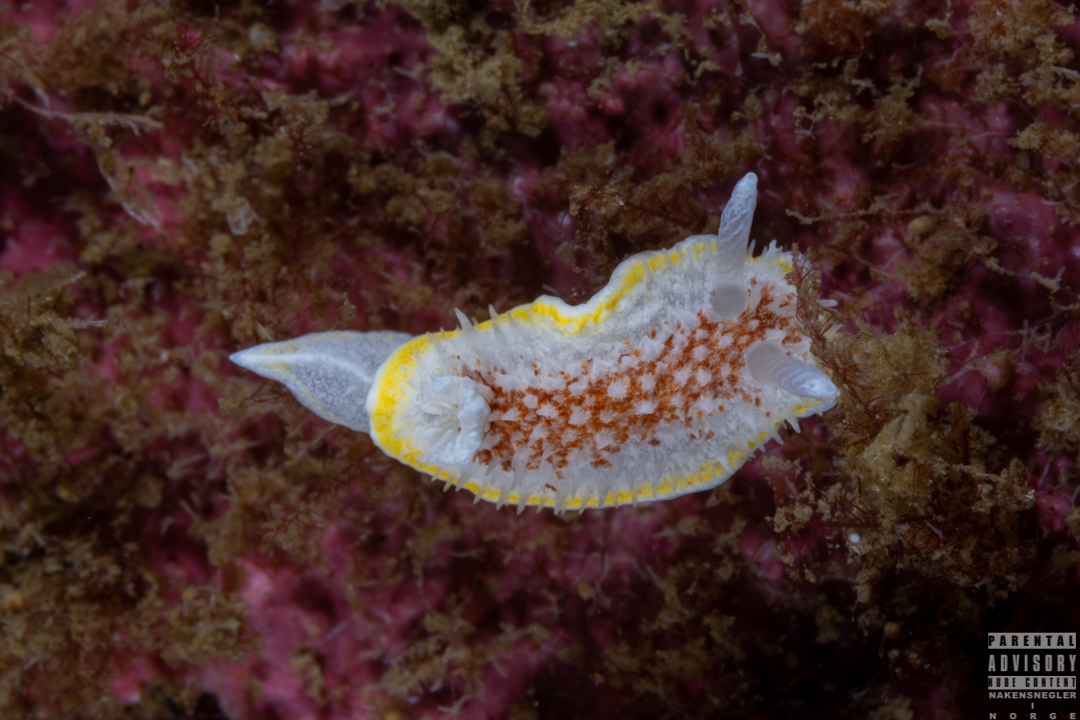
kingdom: Animalia
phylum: Mollusca
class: Gastropoda
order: Nudibranchia
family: Calycidorididae
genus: Diaphorodoris
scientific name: Diaphorodoris luteocincta
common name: Fried egg nudibranch
